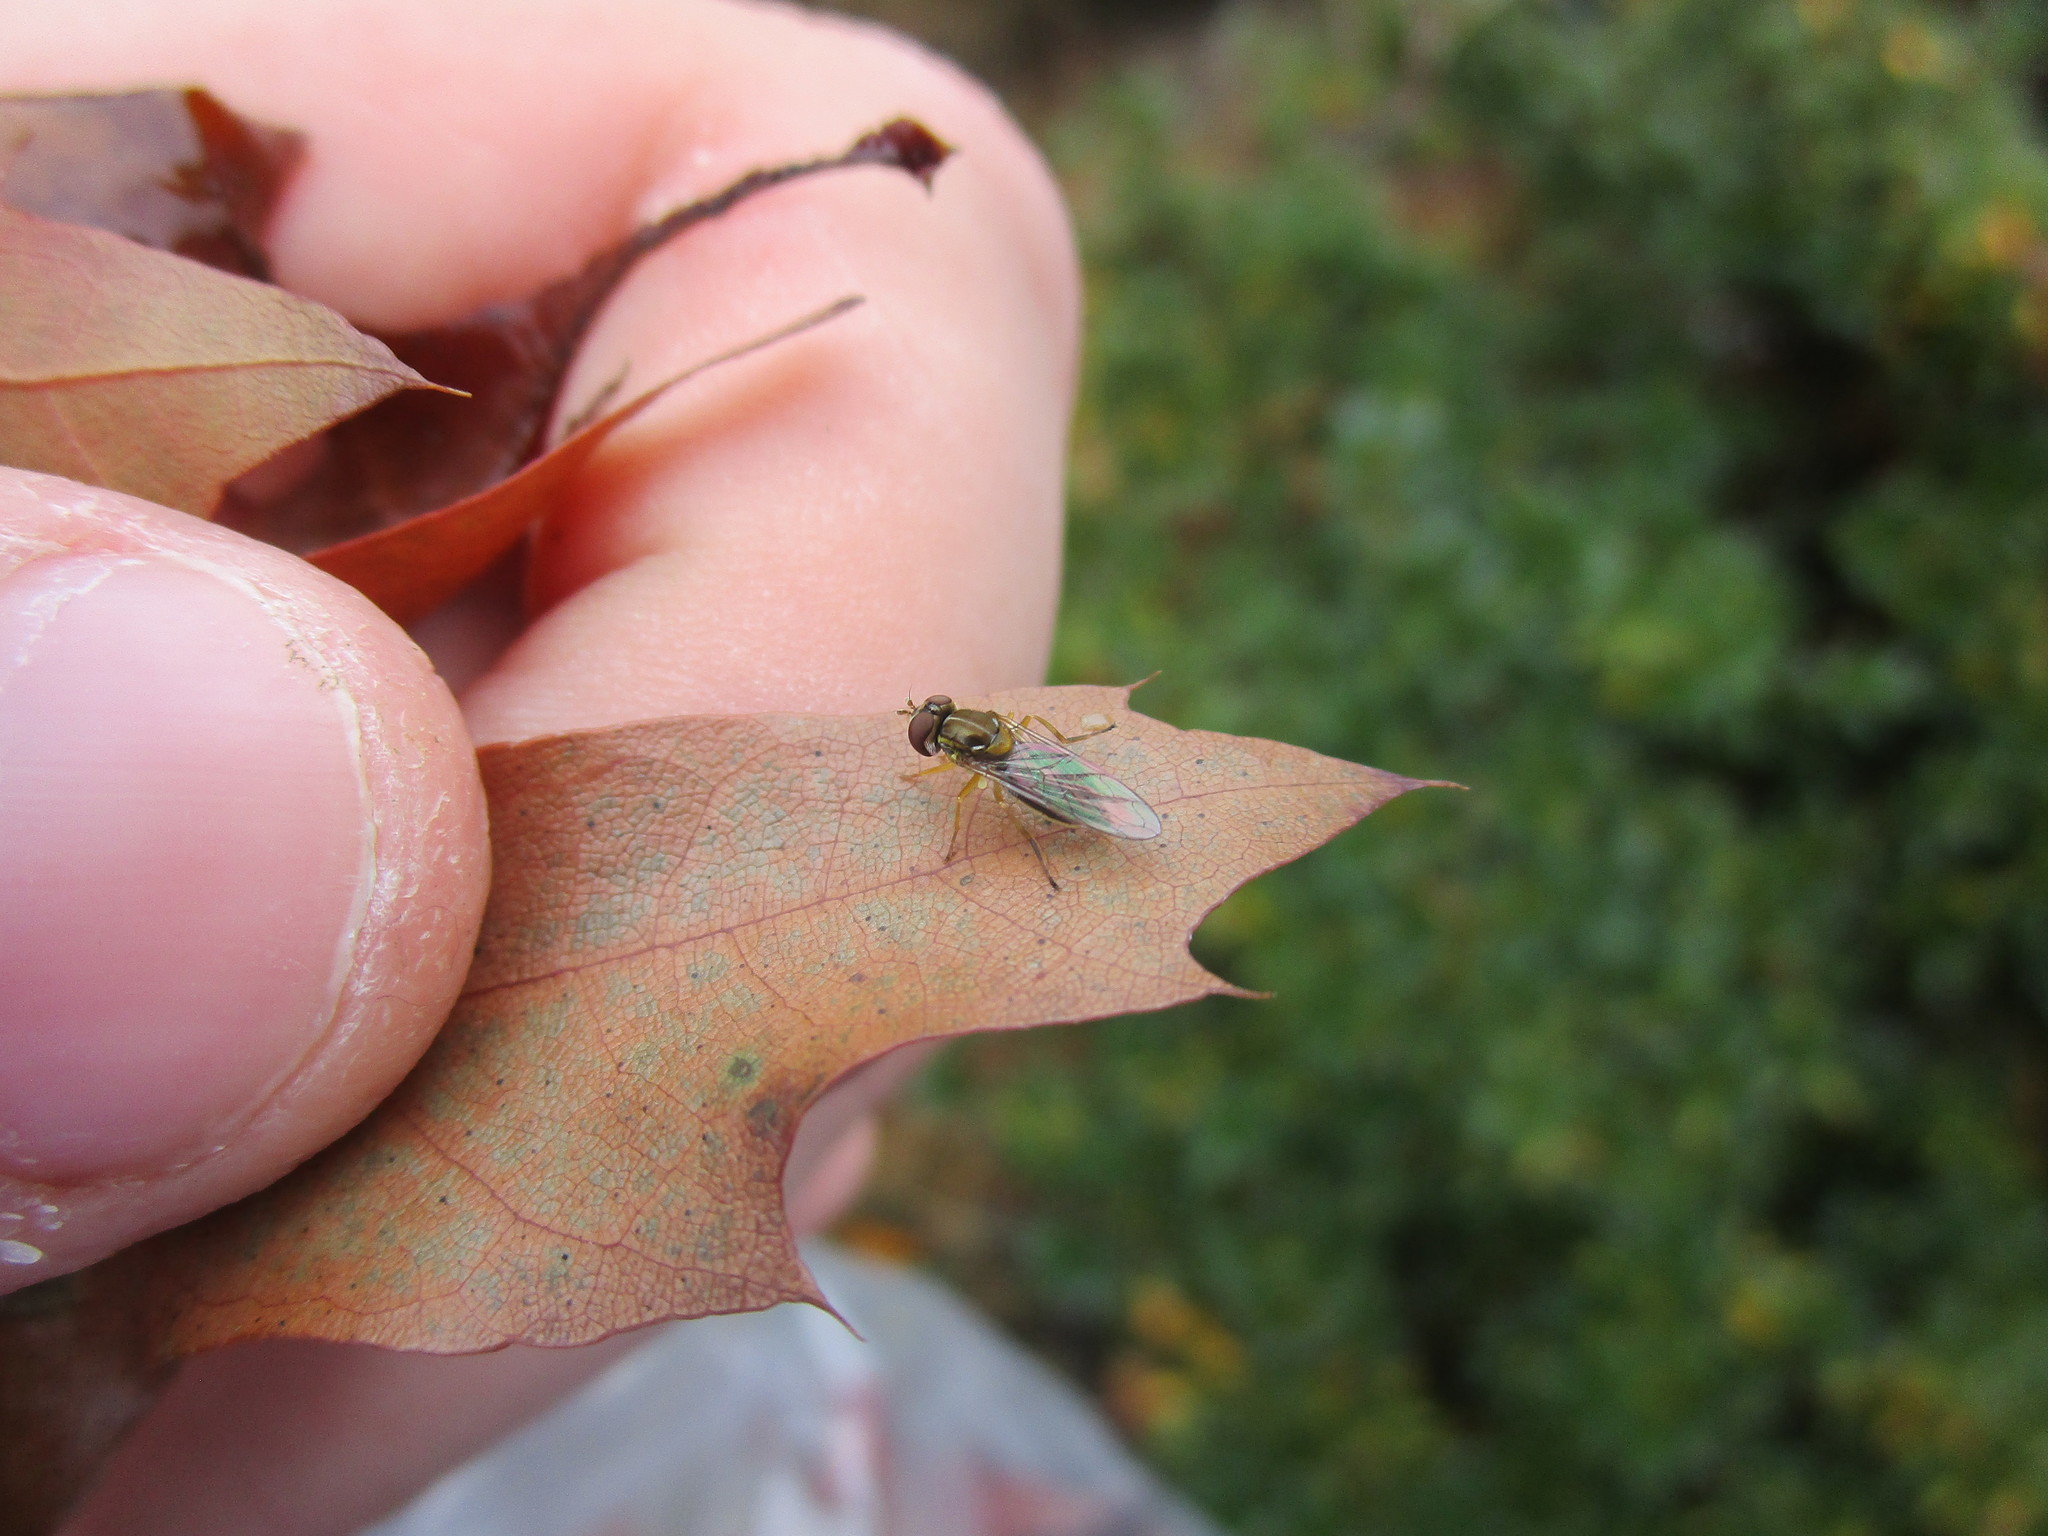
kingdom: Animalia
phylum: Arthropoda
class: Insecta
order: Diptera
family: Syrphidae
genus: Toxomerus
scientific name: Toxomerus marginatus
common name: Syrphid fly
